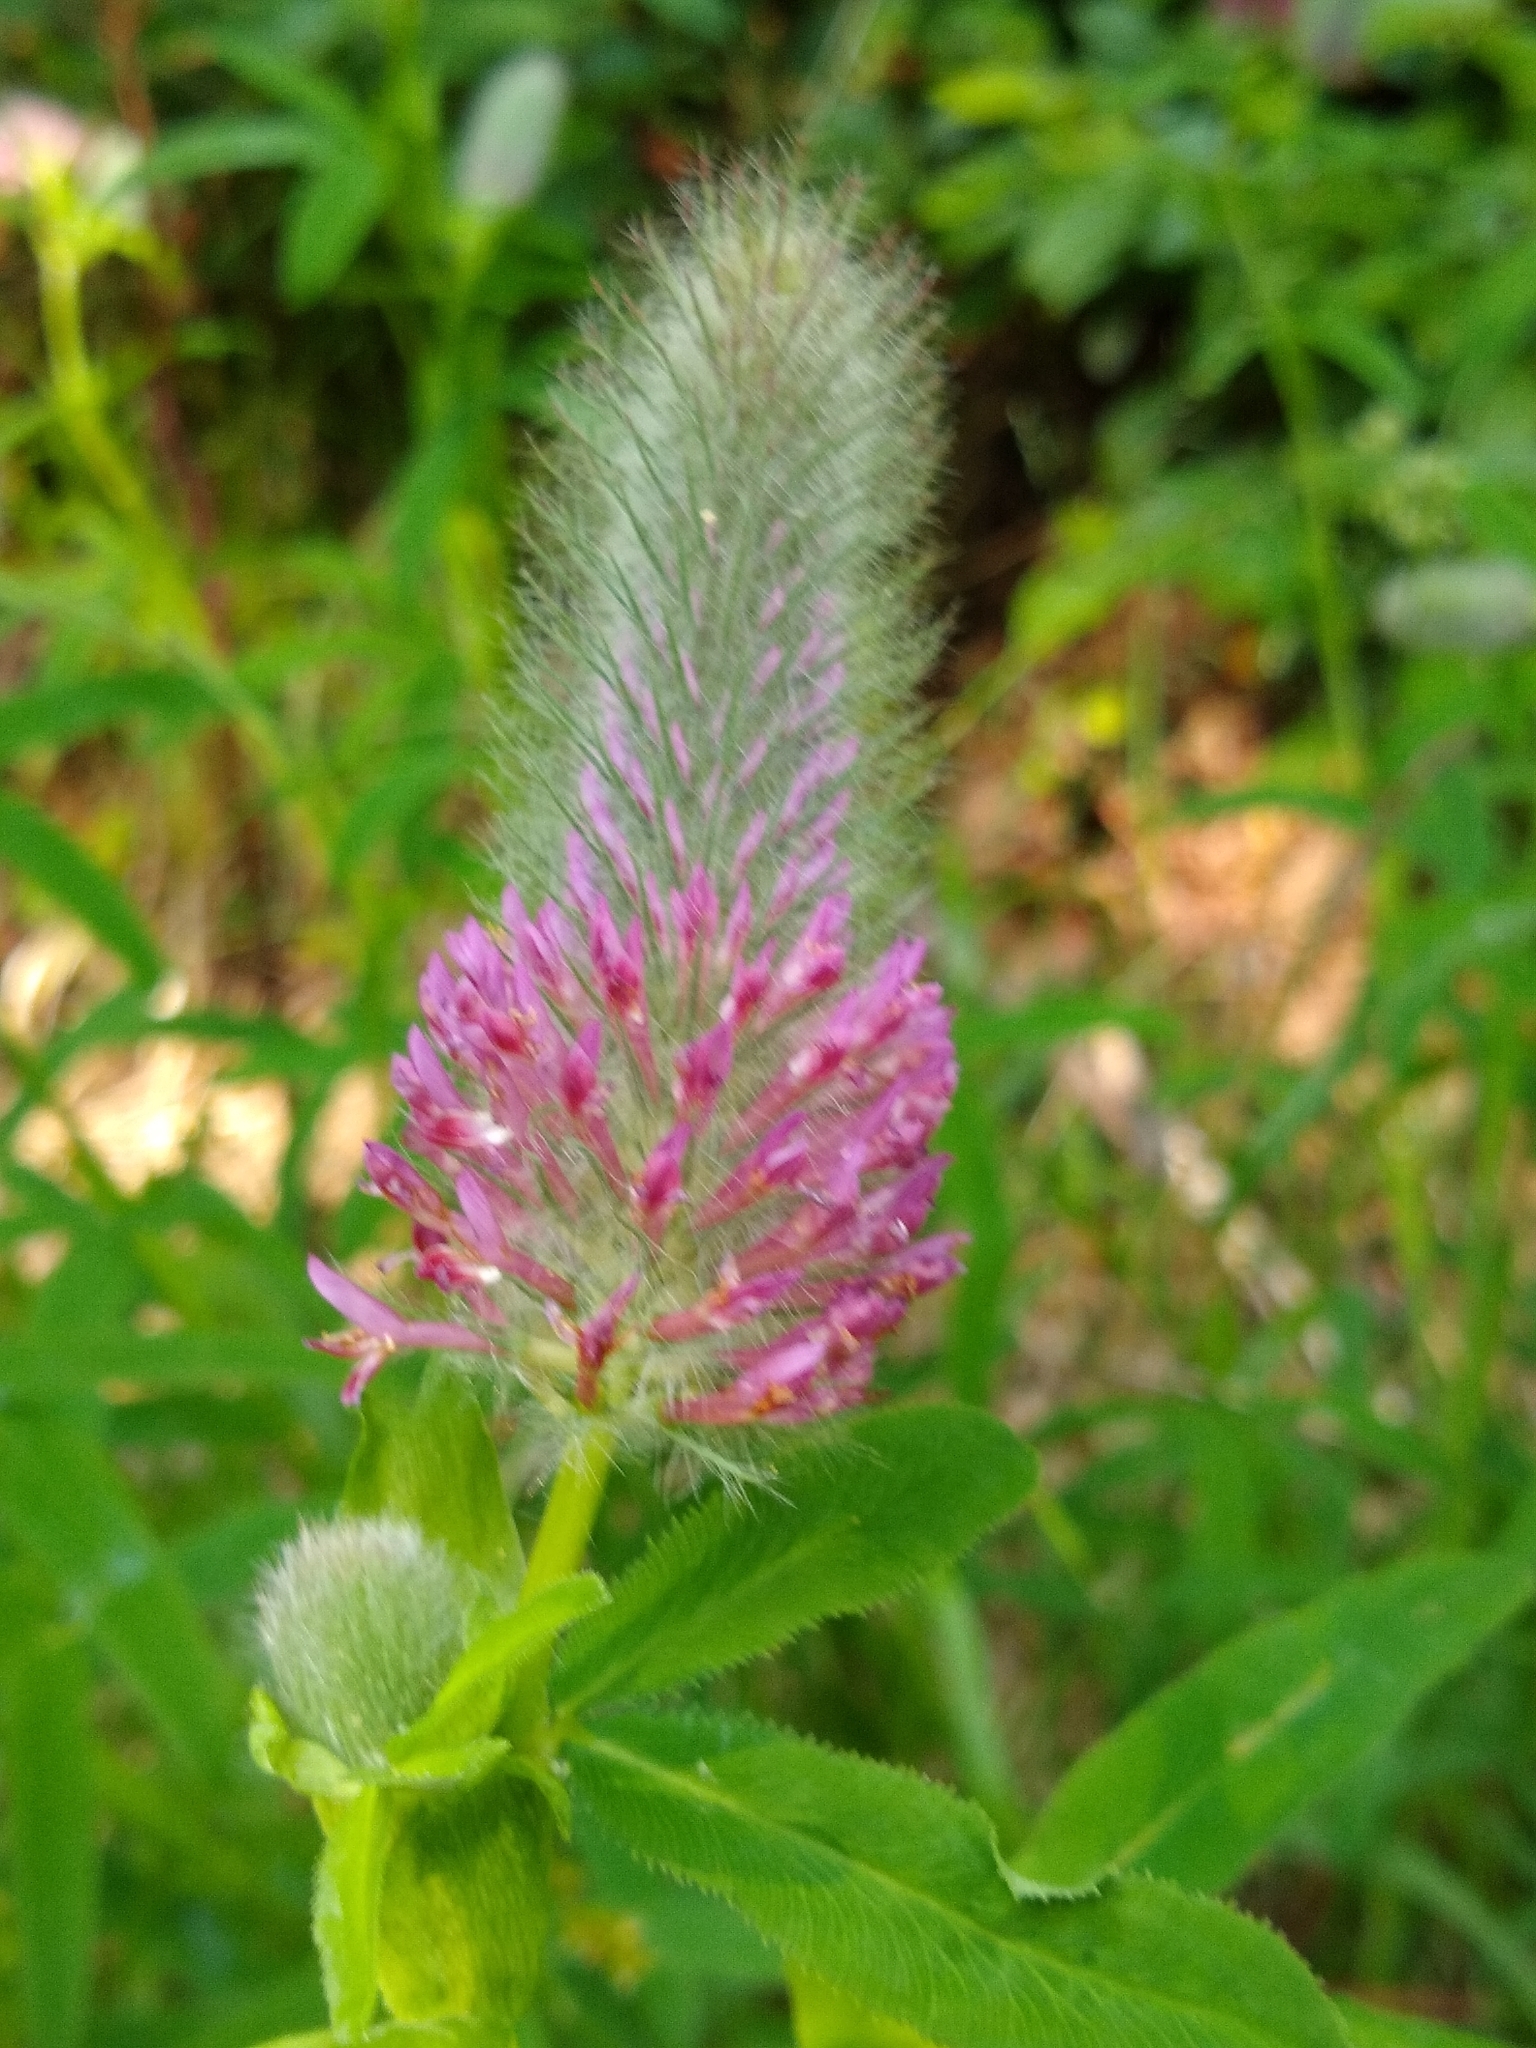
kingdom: Plantae
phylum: Tracheophyta
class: Magnoliopsida
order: Fabales
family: Fabaceae
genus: Trifolium
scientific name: Trifolium rubens
